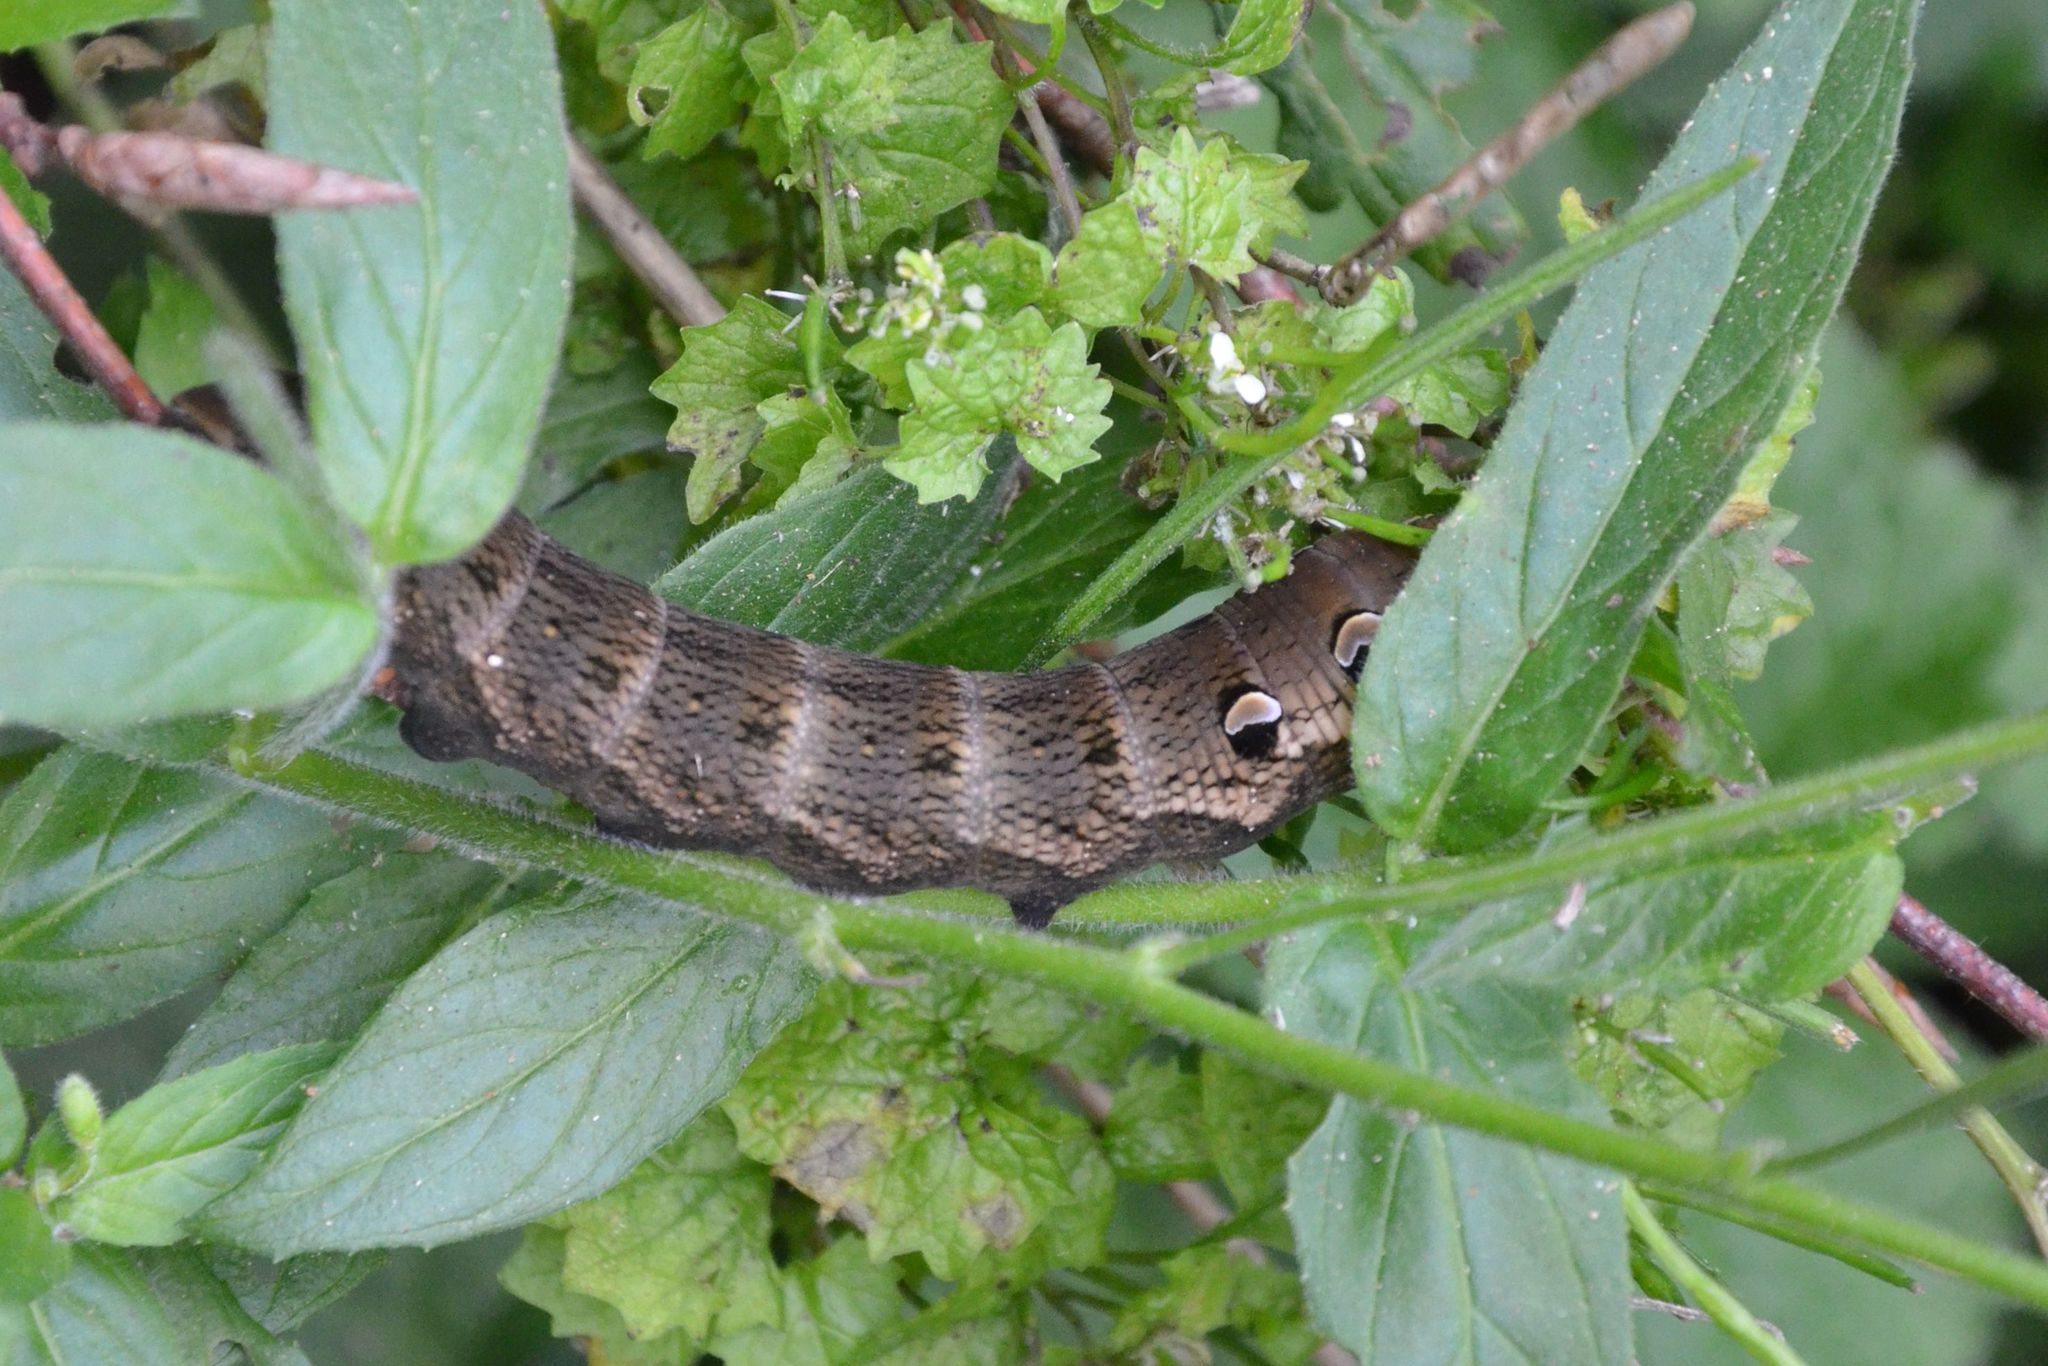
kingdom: Animalia
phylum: Arthropoda
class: Insecta
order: Lepidoptera
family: Sphingidae
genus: Deilephila
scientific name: Deilephila elpenor
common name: Elephant hawk-moth
